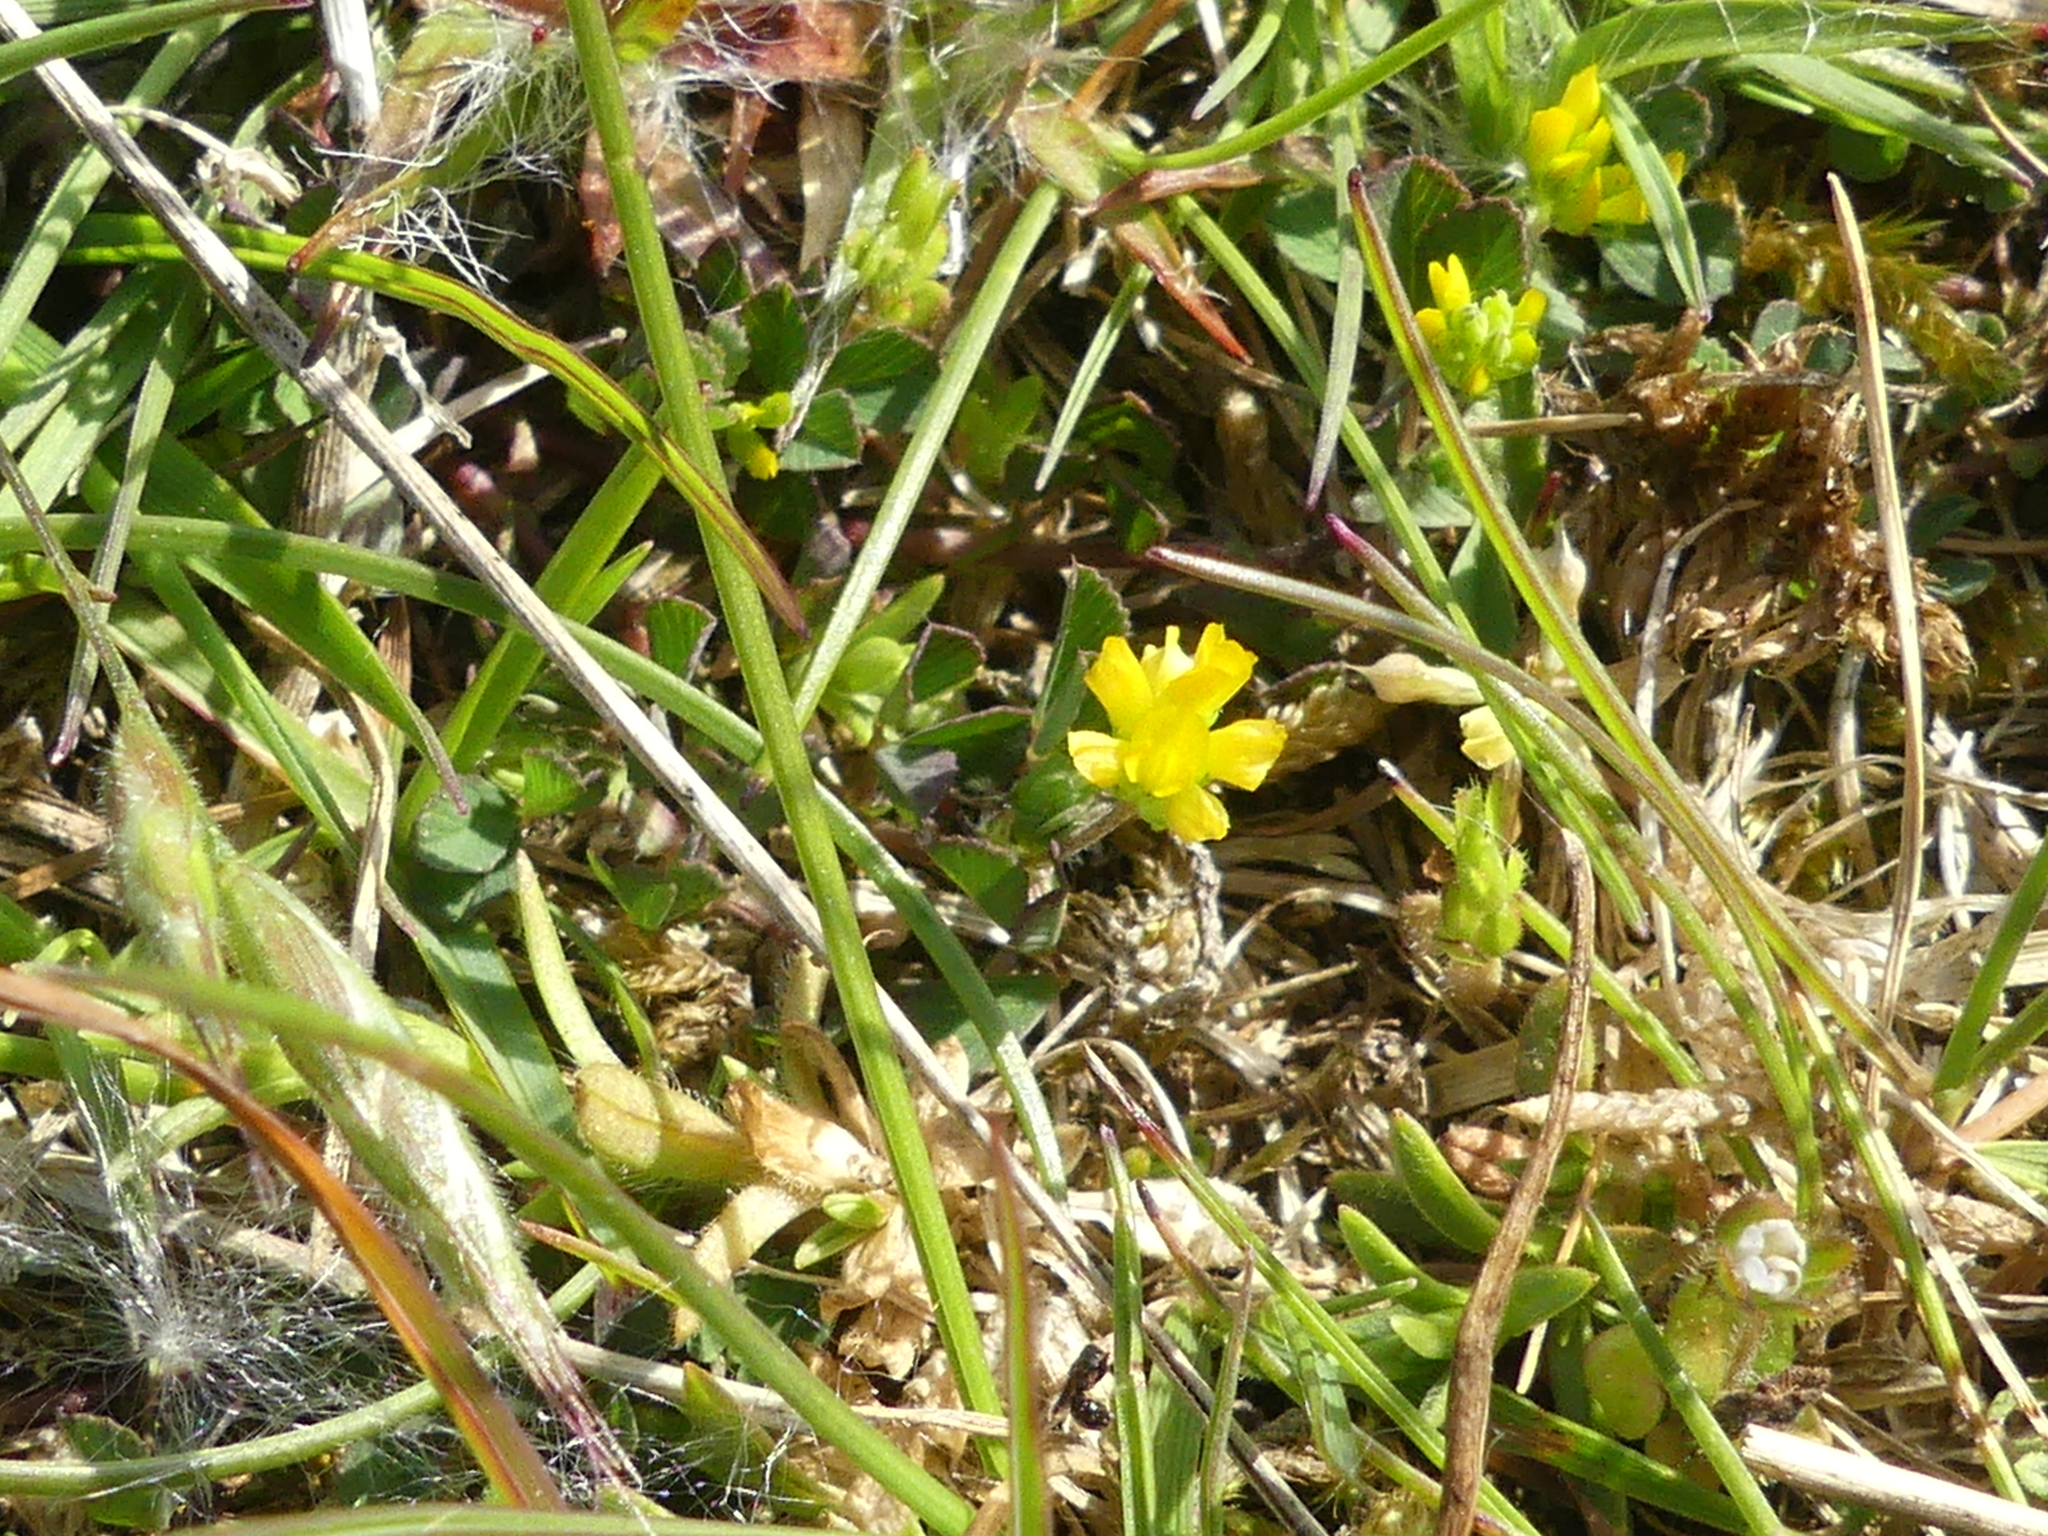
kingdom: Plantae
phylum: Tracheophyta
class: Magnoliopsida
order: Fabales
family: Fabaceae
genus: Trifolium
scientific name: Trifolium dubium
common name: Suckling clover
